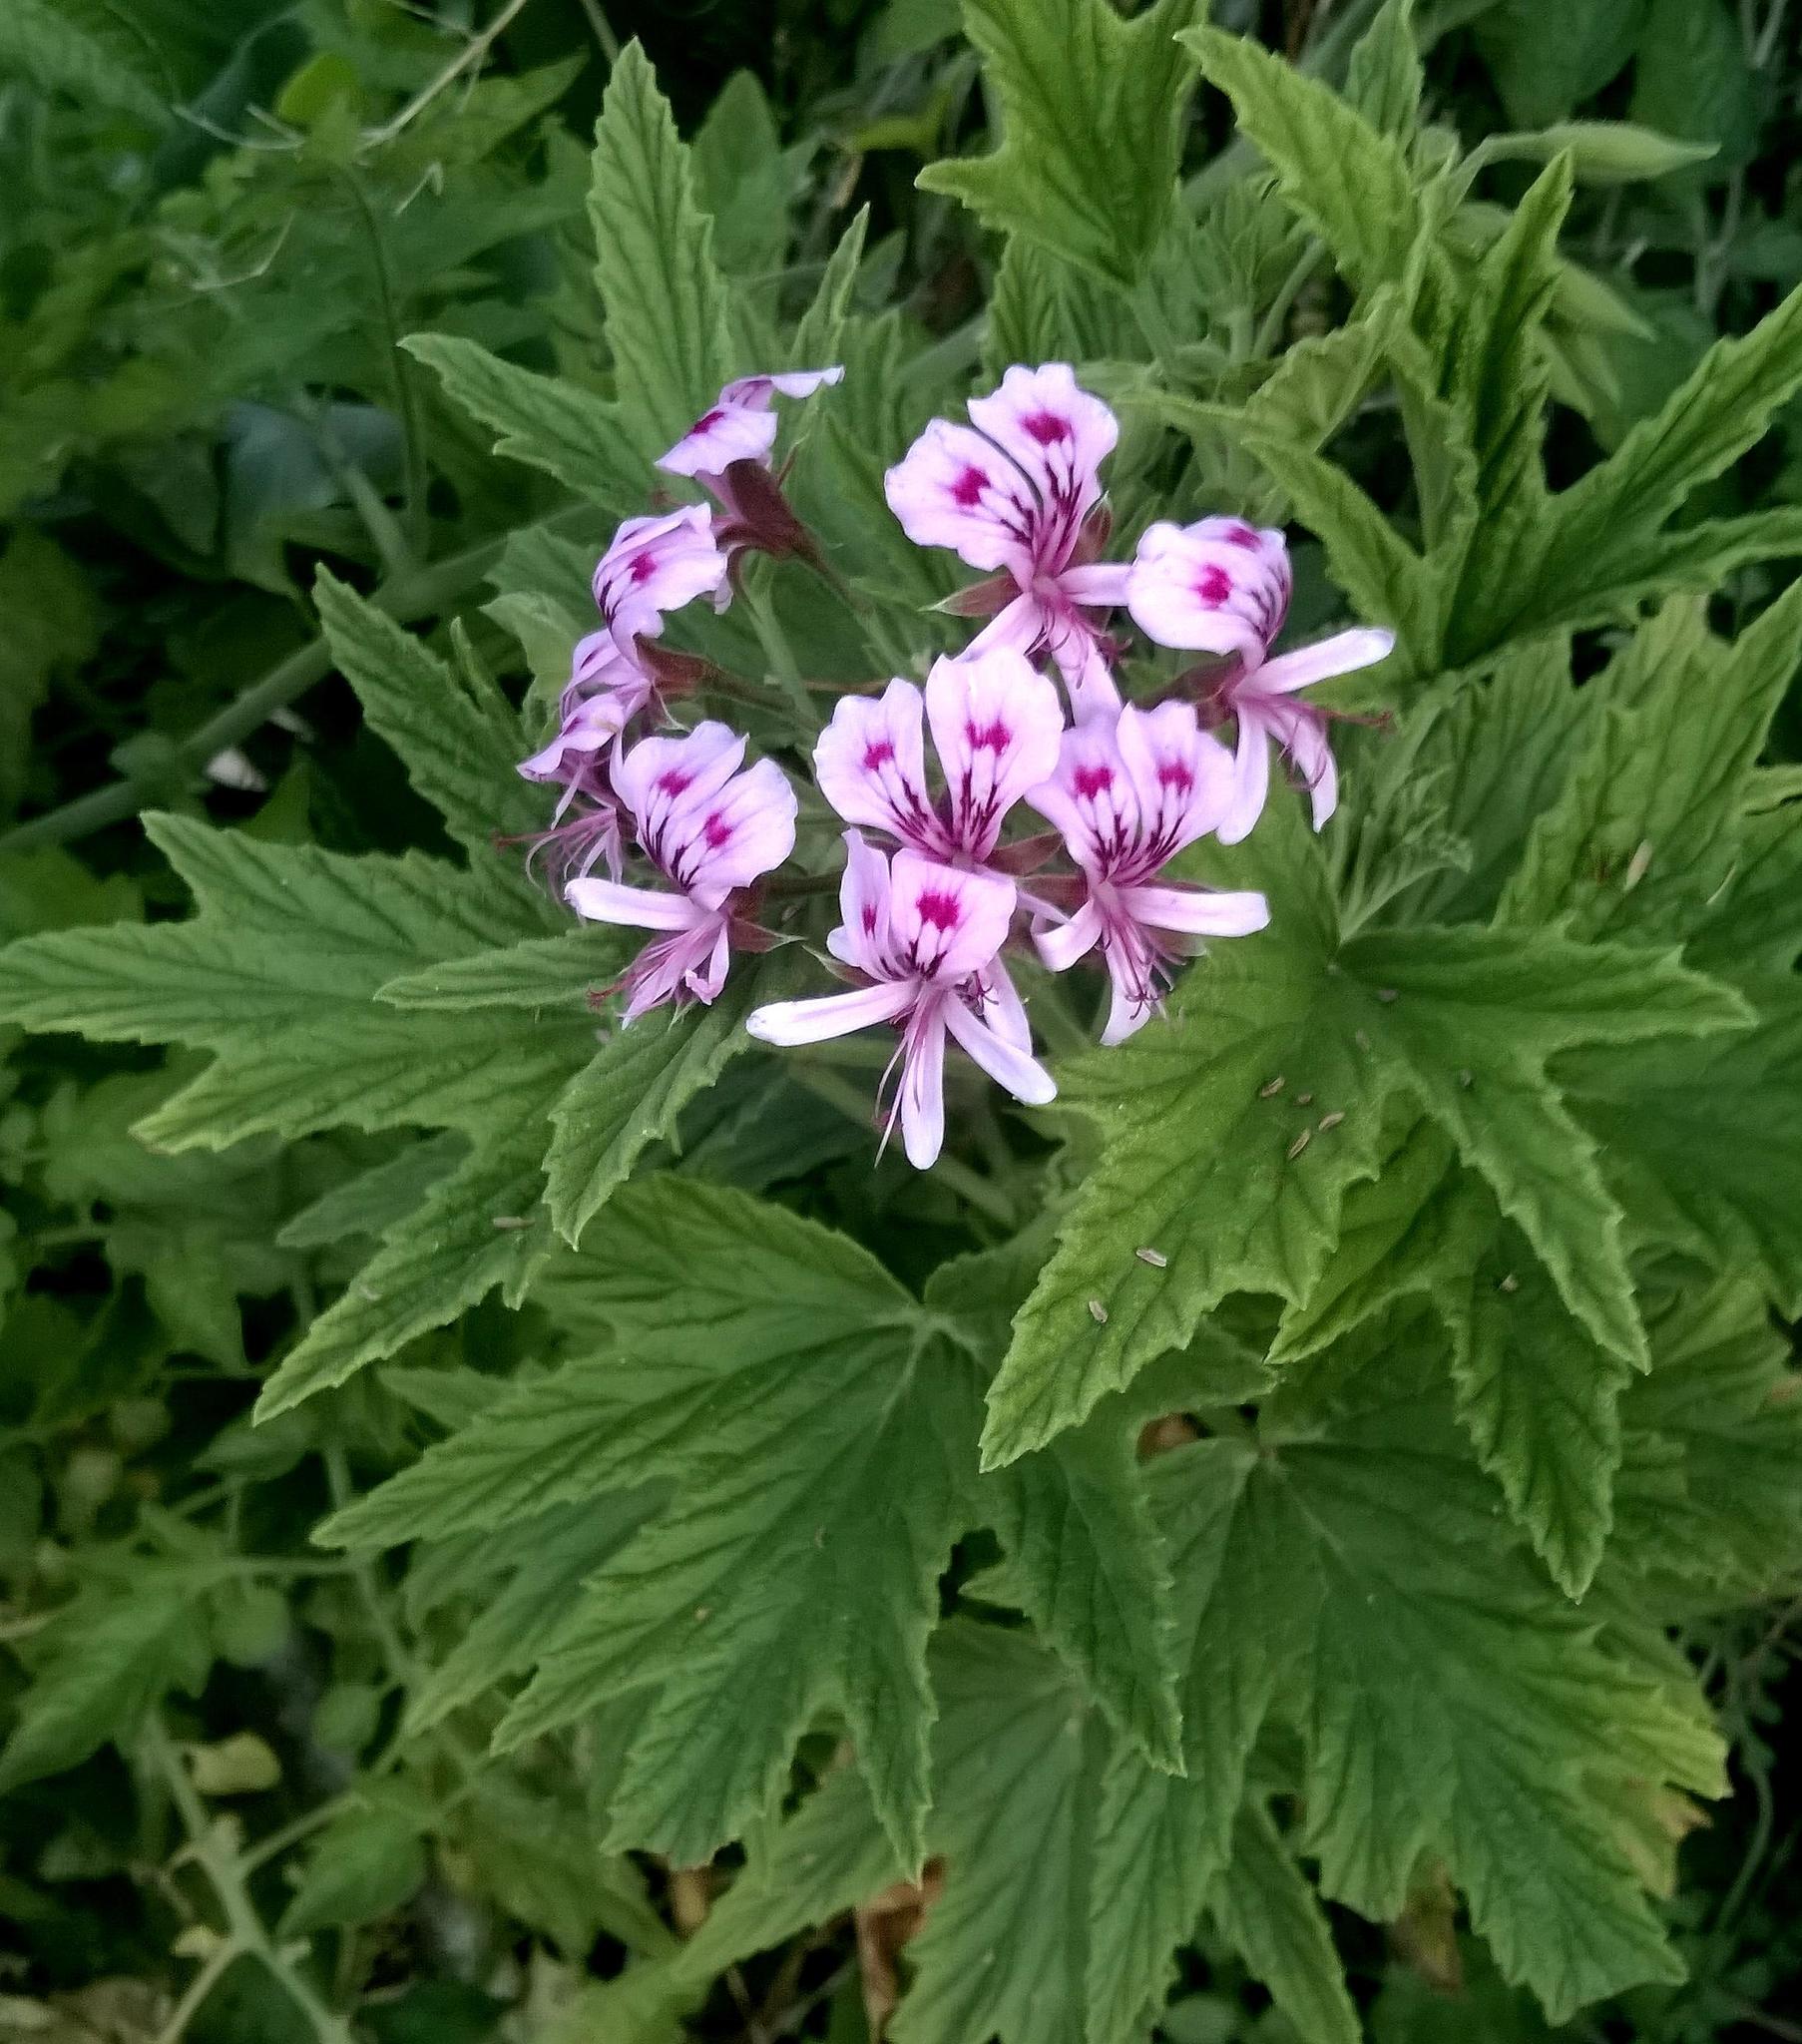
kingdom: Plantae
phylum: Tracheophyta
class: Magnoliopsida
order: Geraniales
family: Geraniaceae
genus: Pelargonium
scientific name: Pelargonium citronellum
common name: Lemon-scent pelargonium
